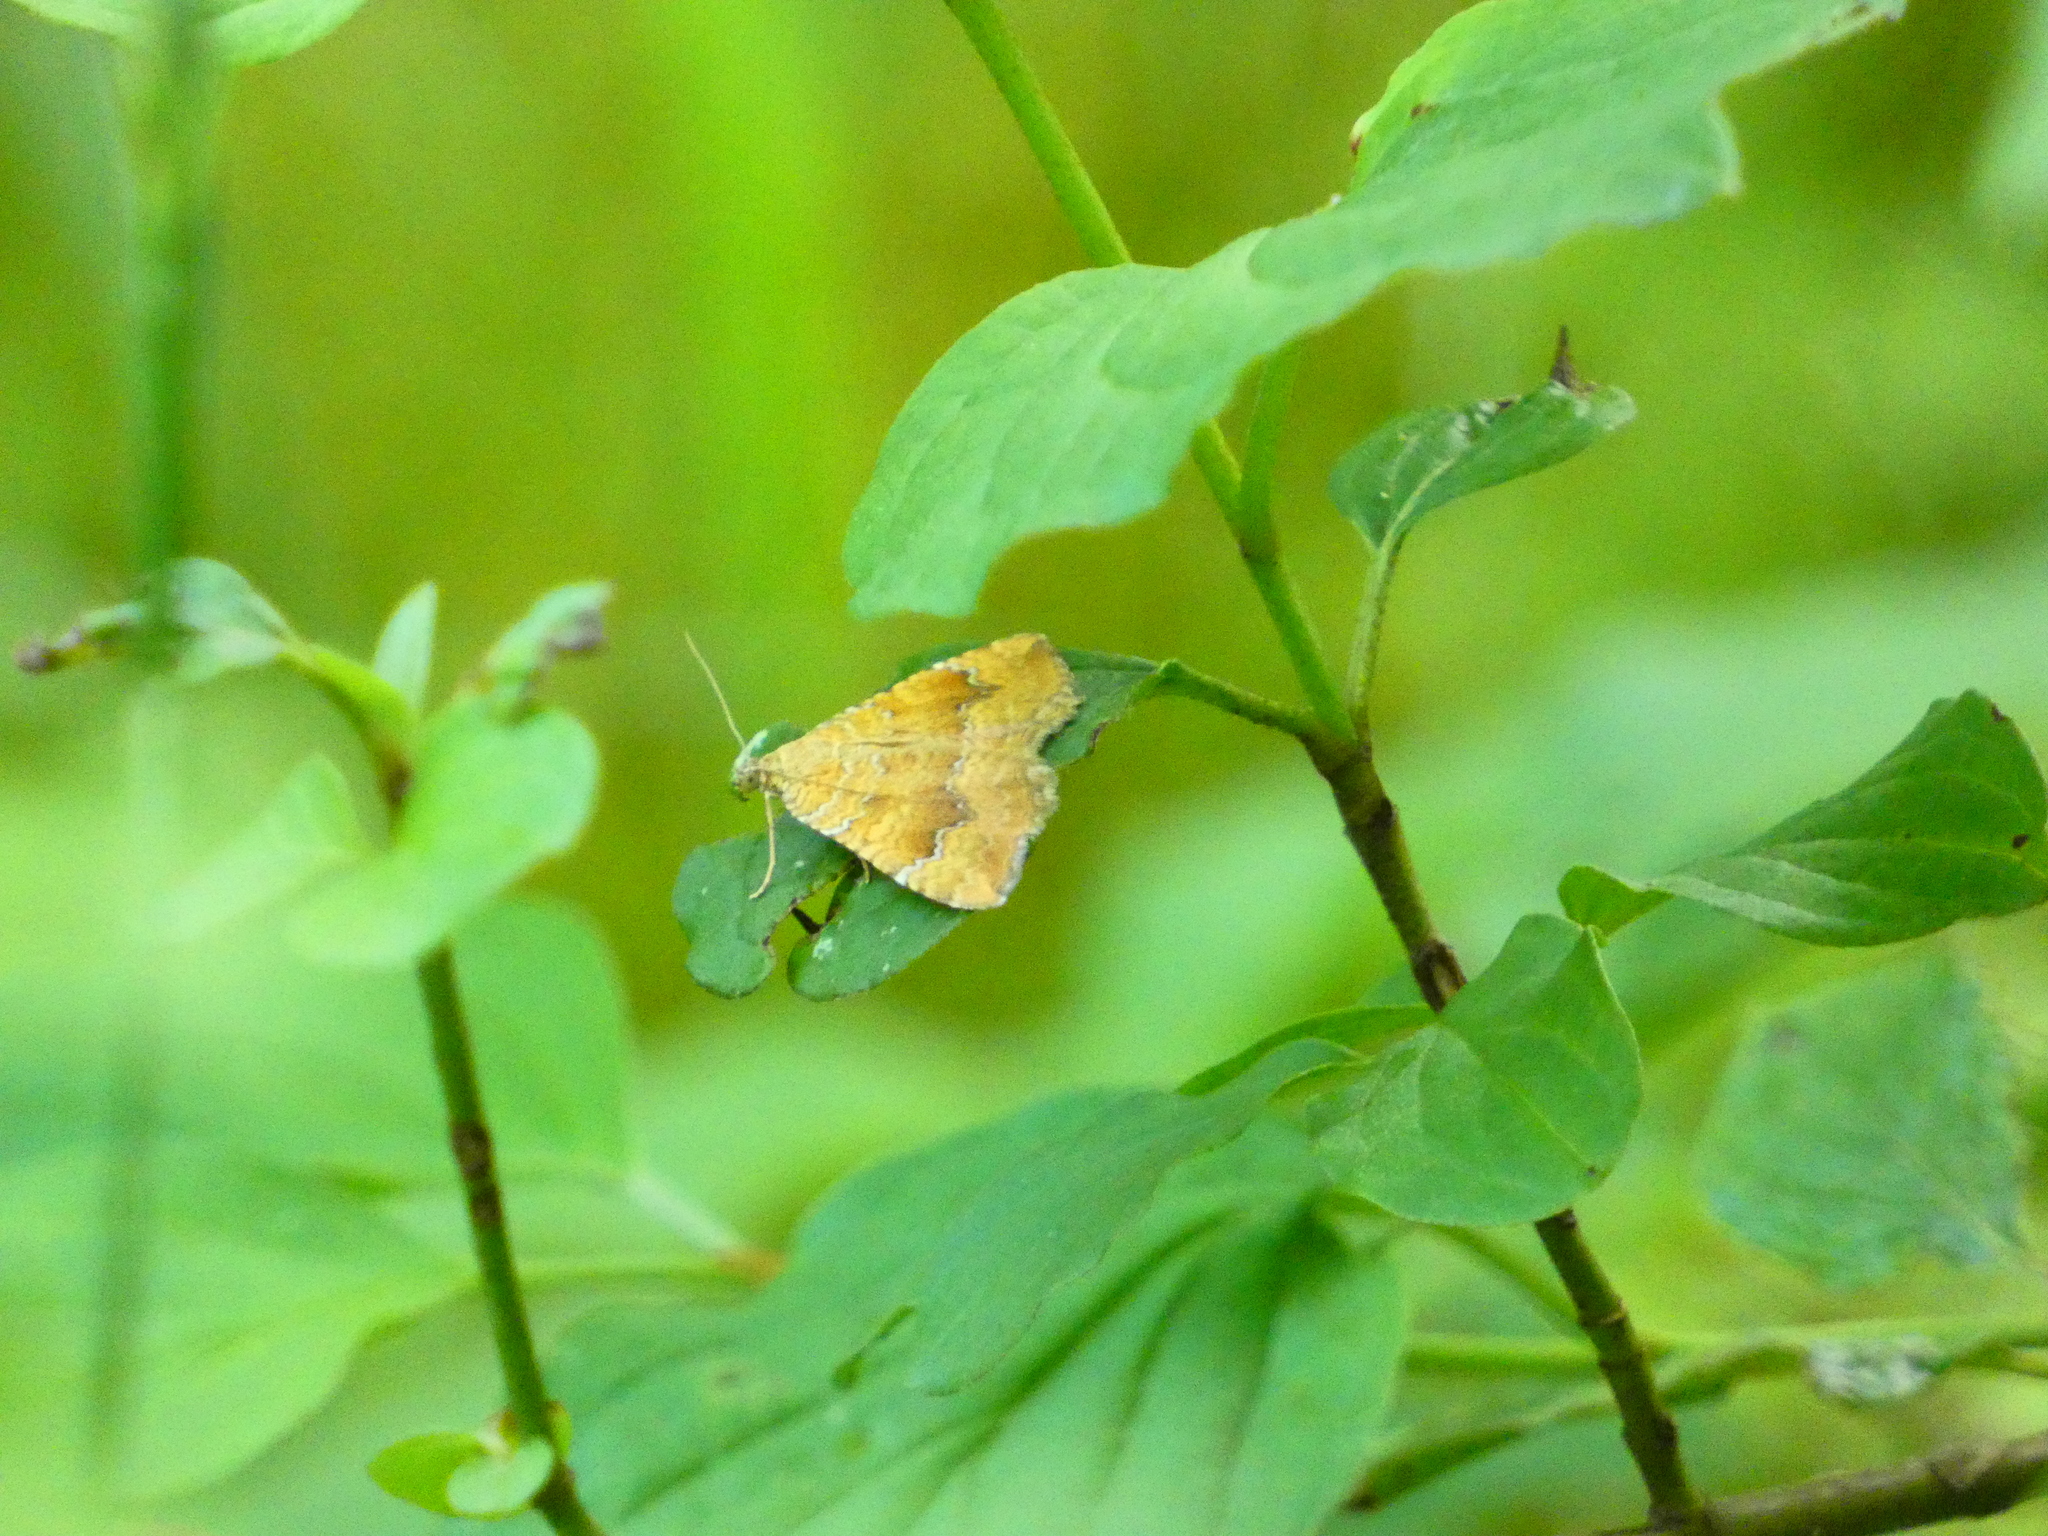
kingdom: Animalia
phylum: Arthropoda
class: Insecta
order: Lepidoptera
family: Geometridae
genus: Camptogramma
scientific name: Camptogramma bilineata
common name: Yellow shell
